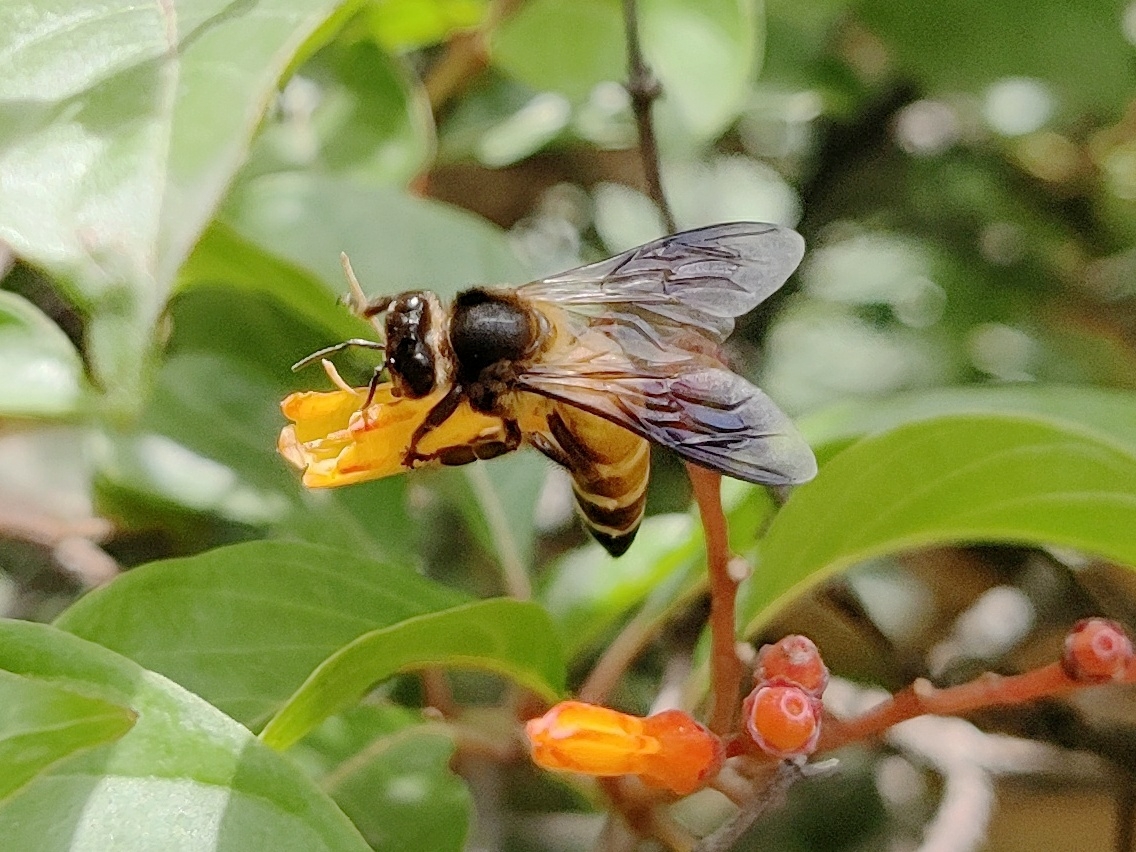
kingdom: Animalia
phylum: Arthropoda
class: Insecta
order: Hymenoptera
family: Apidae
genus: Apis
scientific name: Apis dorsata
